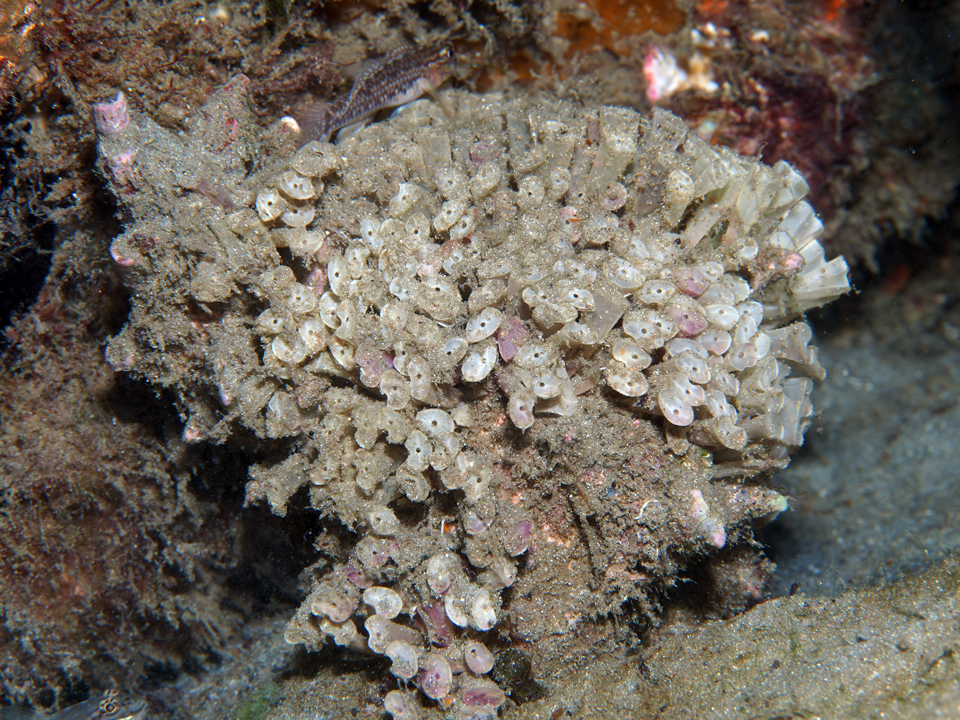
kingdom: Animalia
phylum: Mollusca
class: Gastropoda
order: Neogastropoda
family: Muricidae
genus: Hexaplex
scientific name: Hexaplex fulvescens
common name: Tawny murex
